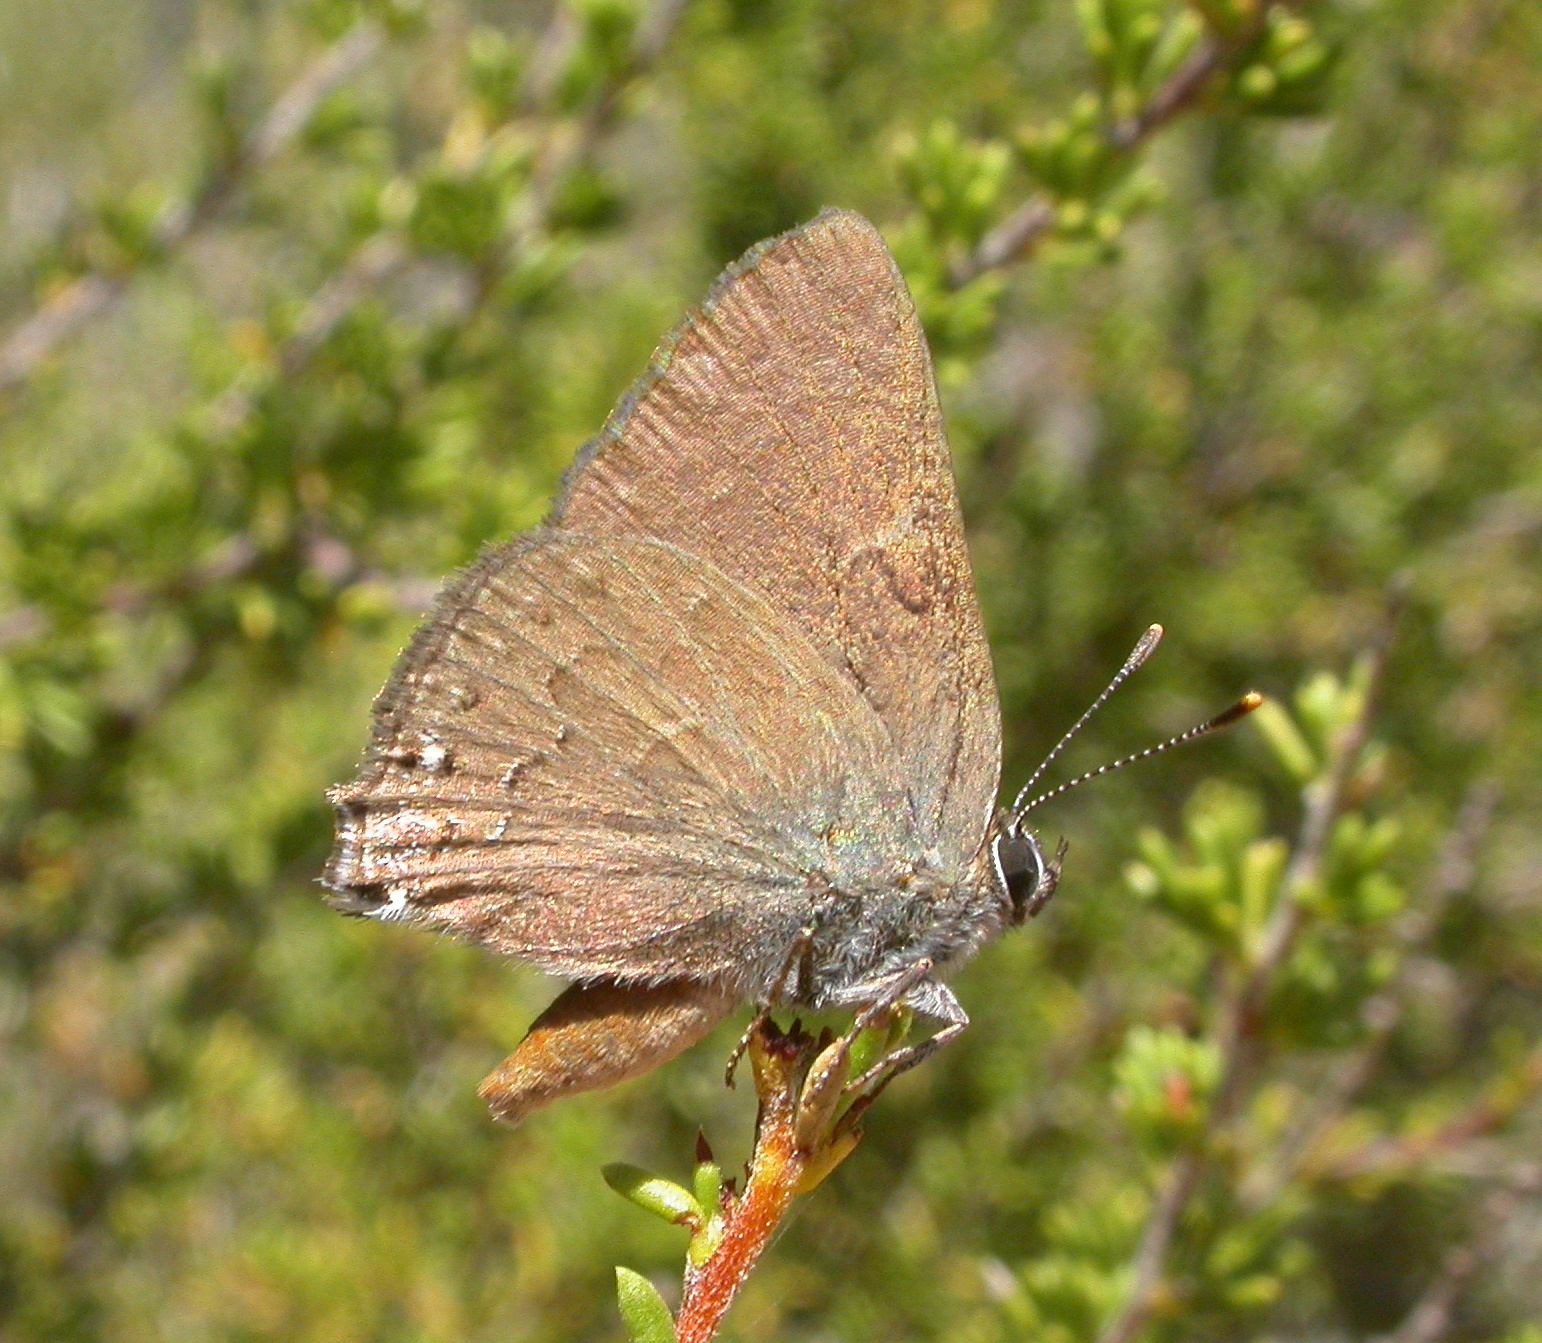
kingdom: Animalia
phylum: Arthropoda
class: Insecta
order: Lepidoptera
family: Lycaenidae
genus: Strymon
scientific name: Strymon saepium
